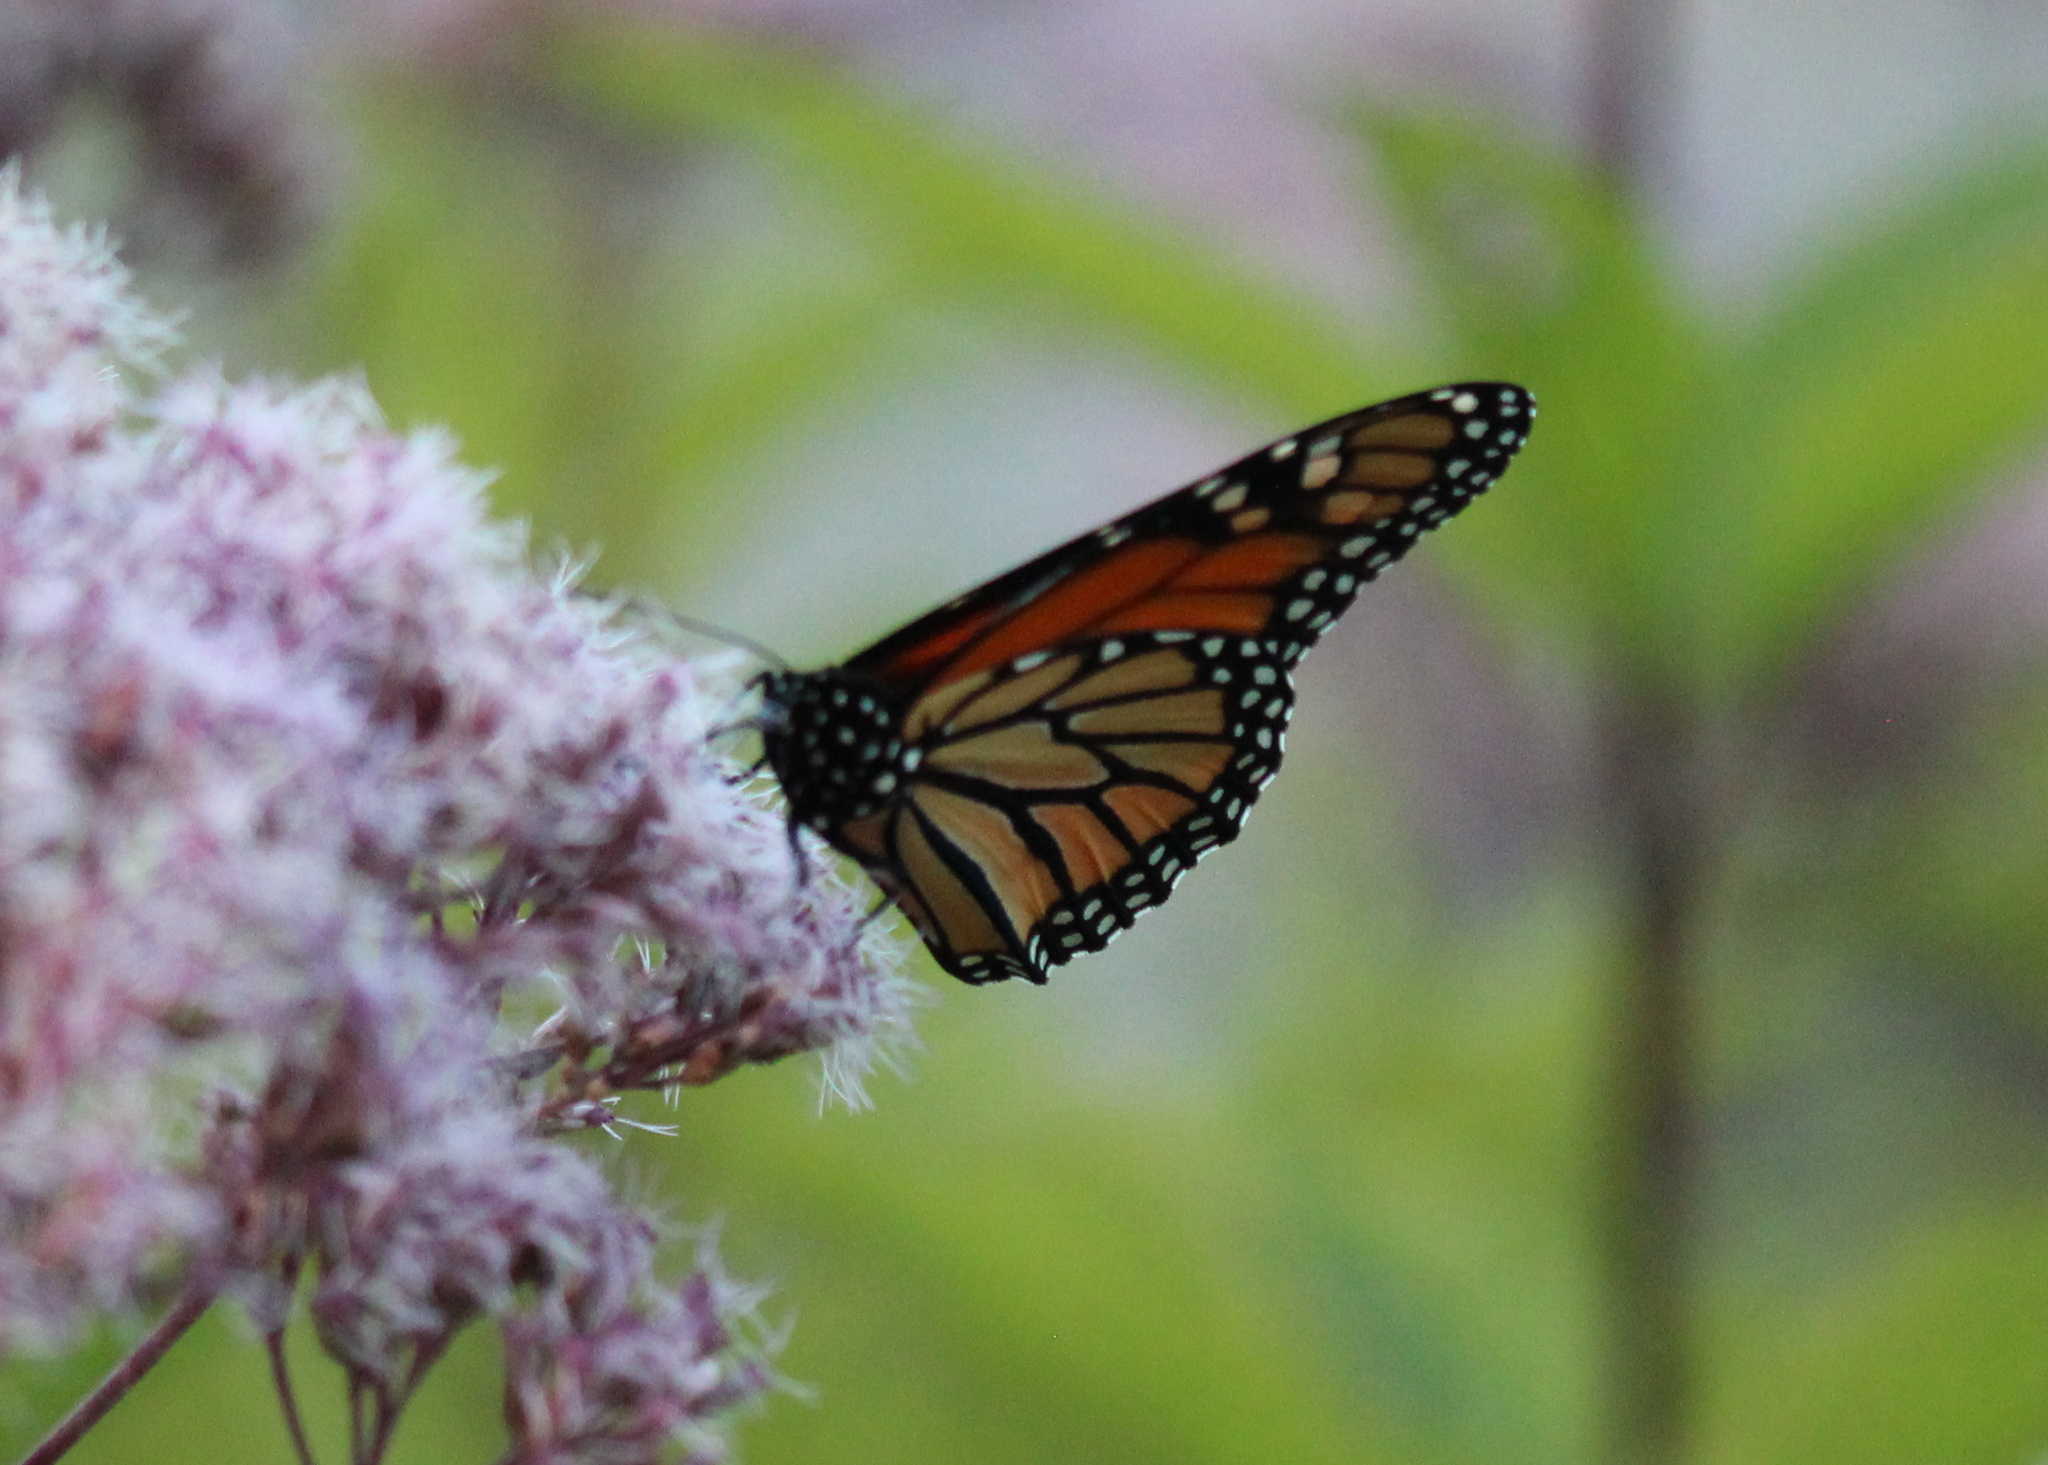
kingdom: Animalia
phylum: Arthropoda
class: Insecta
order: Lepidoptera
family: Nymphalidae
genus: Danaus
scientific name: Danaus plexippus
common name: Monarch
